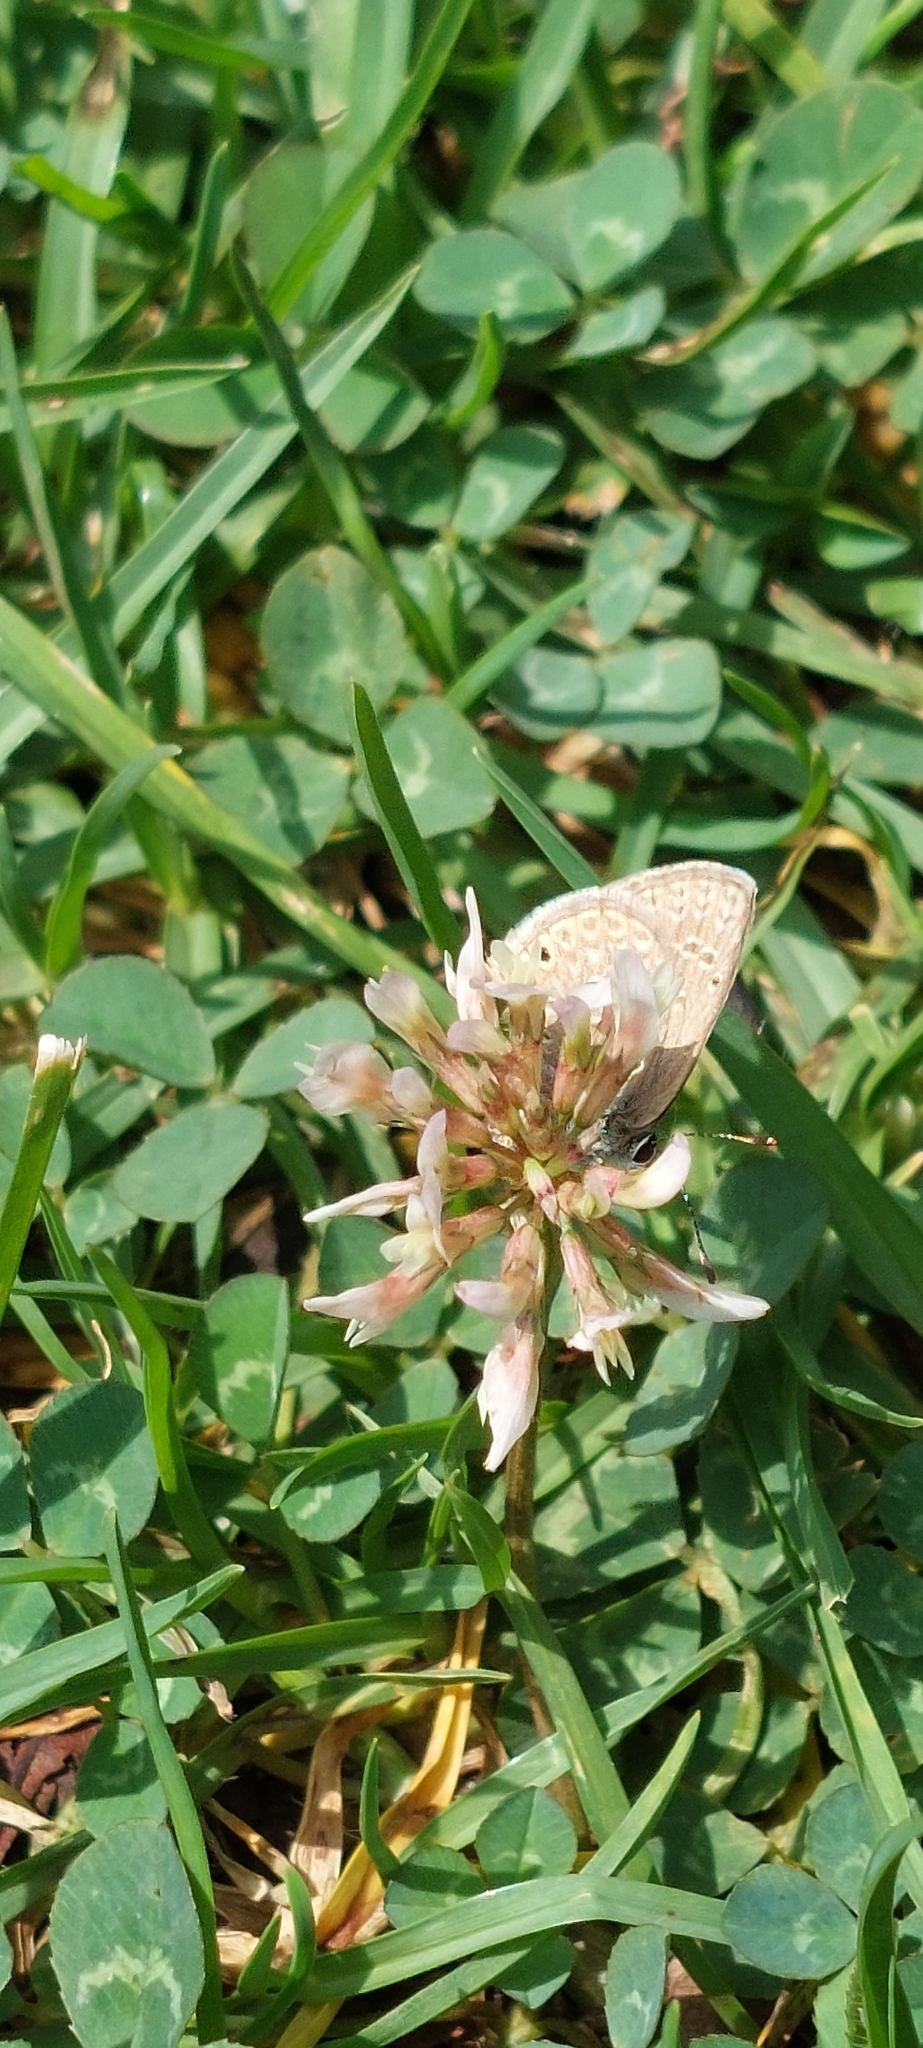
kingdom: Plantae
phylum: Tracheophyta
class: Magnoliopsida
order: Fabales
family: Fabaceae
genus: Trifolium
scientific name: Trifolium repens
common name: White clover
